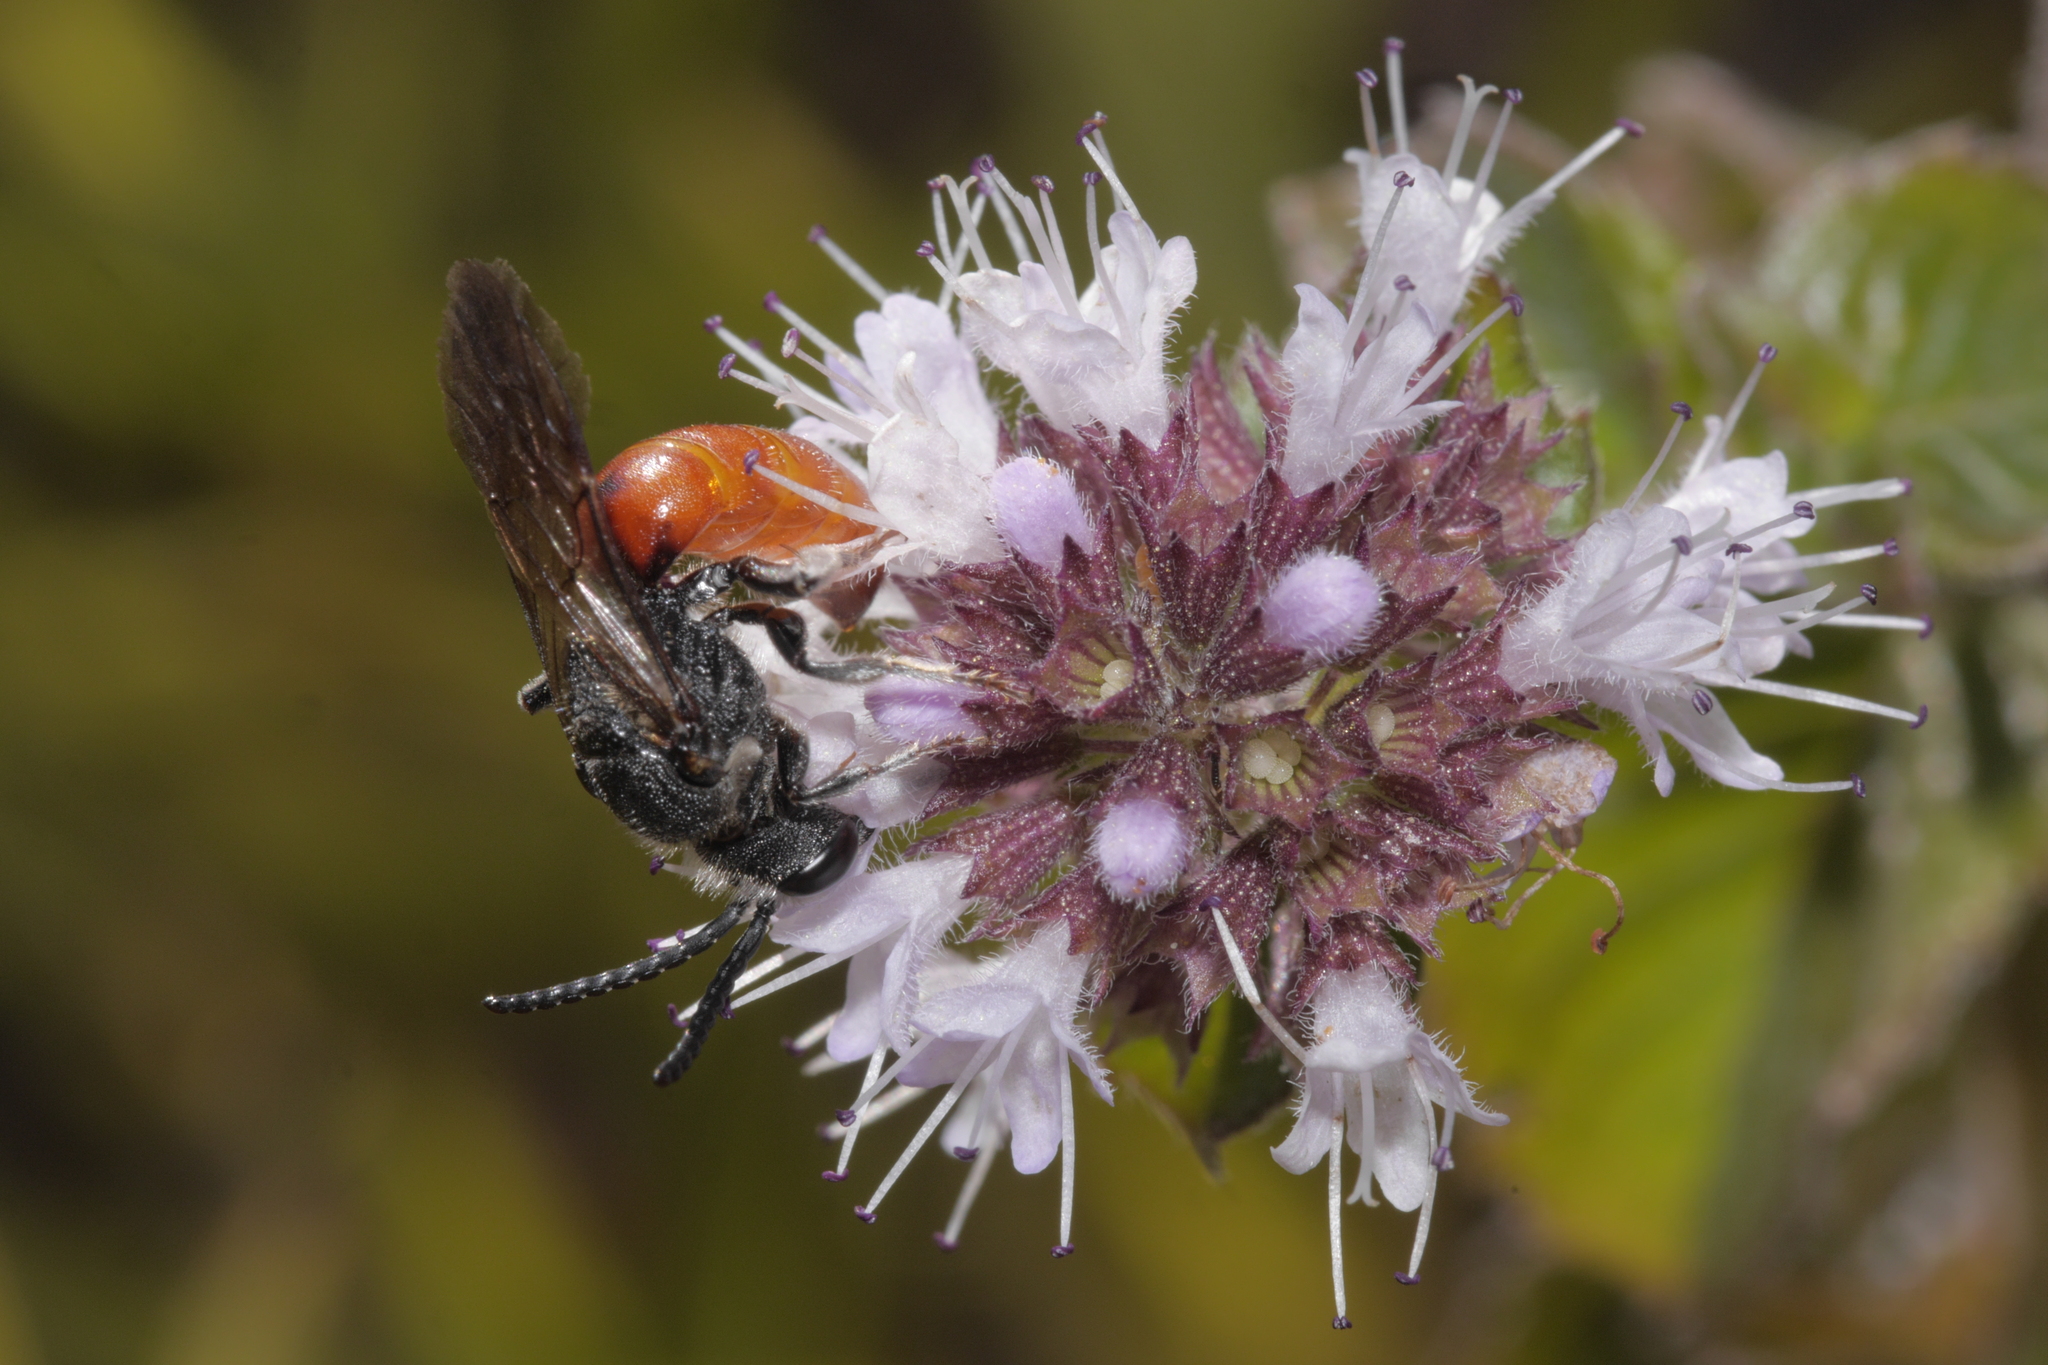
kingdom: Animalia
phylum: Arthropoda
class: Insecta
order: Hymenoptera
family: Halictidae
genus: Sphecodes
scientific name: Sphecodes albilabris
